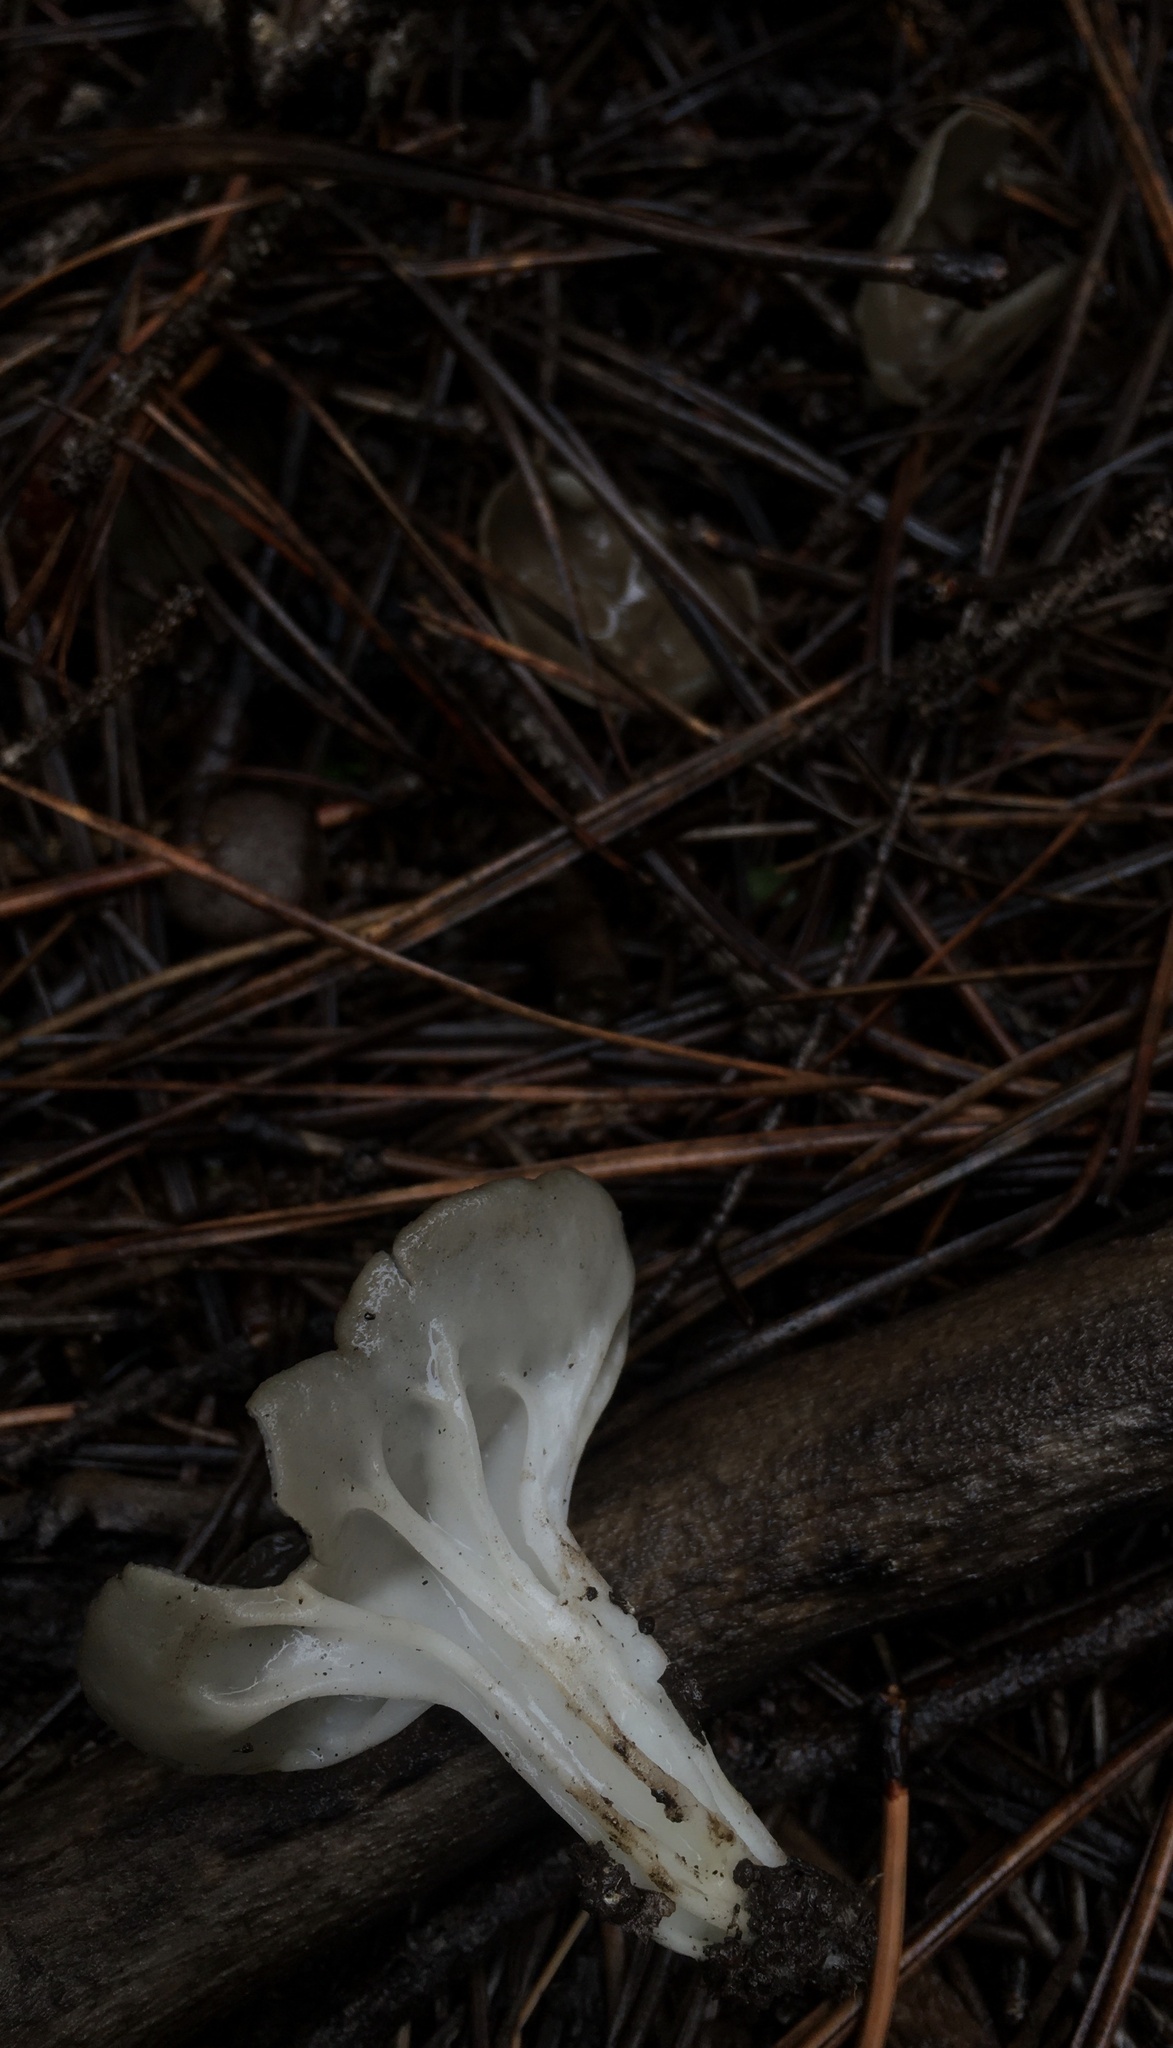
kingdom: Fungi
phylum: Ascomycota
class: Pezizomycetes
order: Pezizales
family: Helvellaceae
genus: Helvella
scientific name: Helvella acetabulum
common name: Vinegar cup
